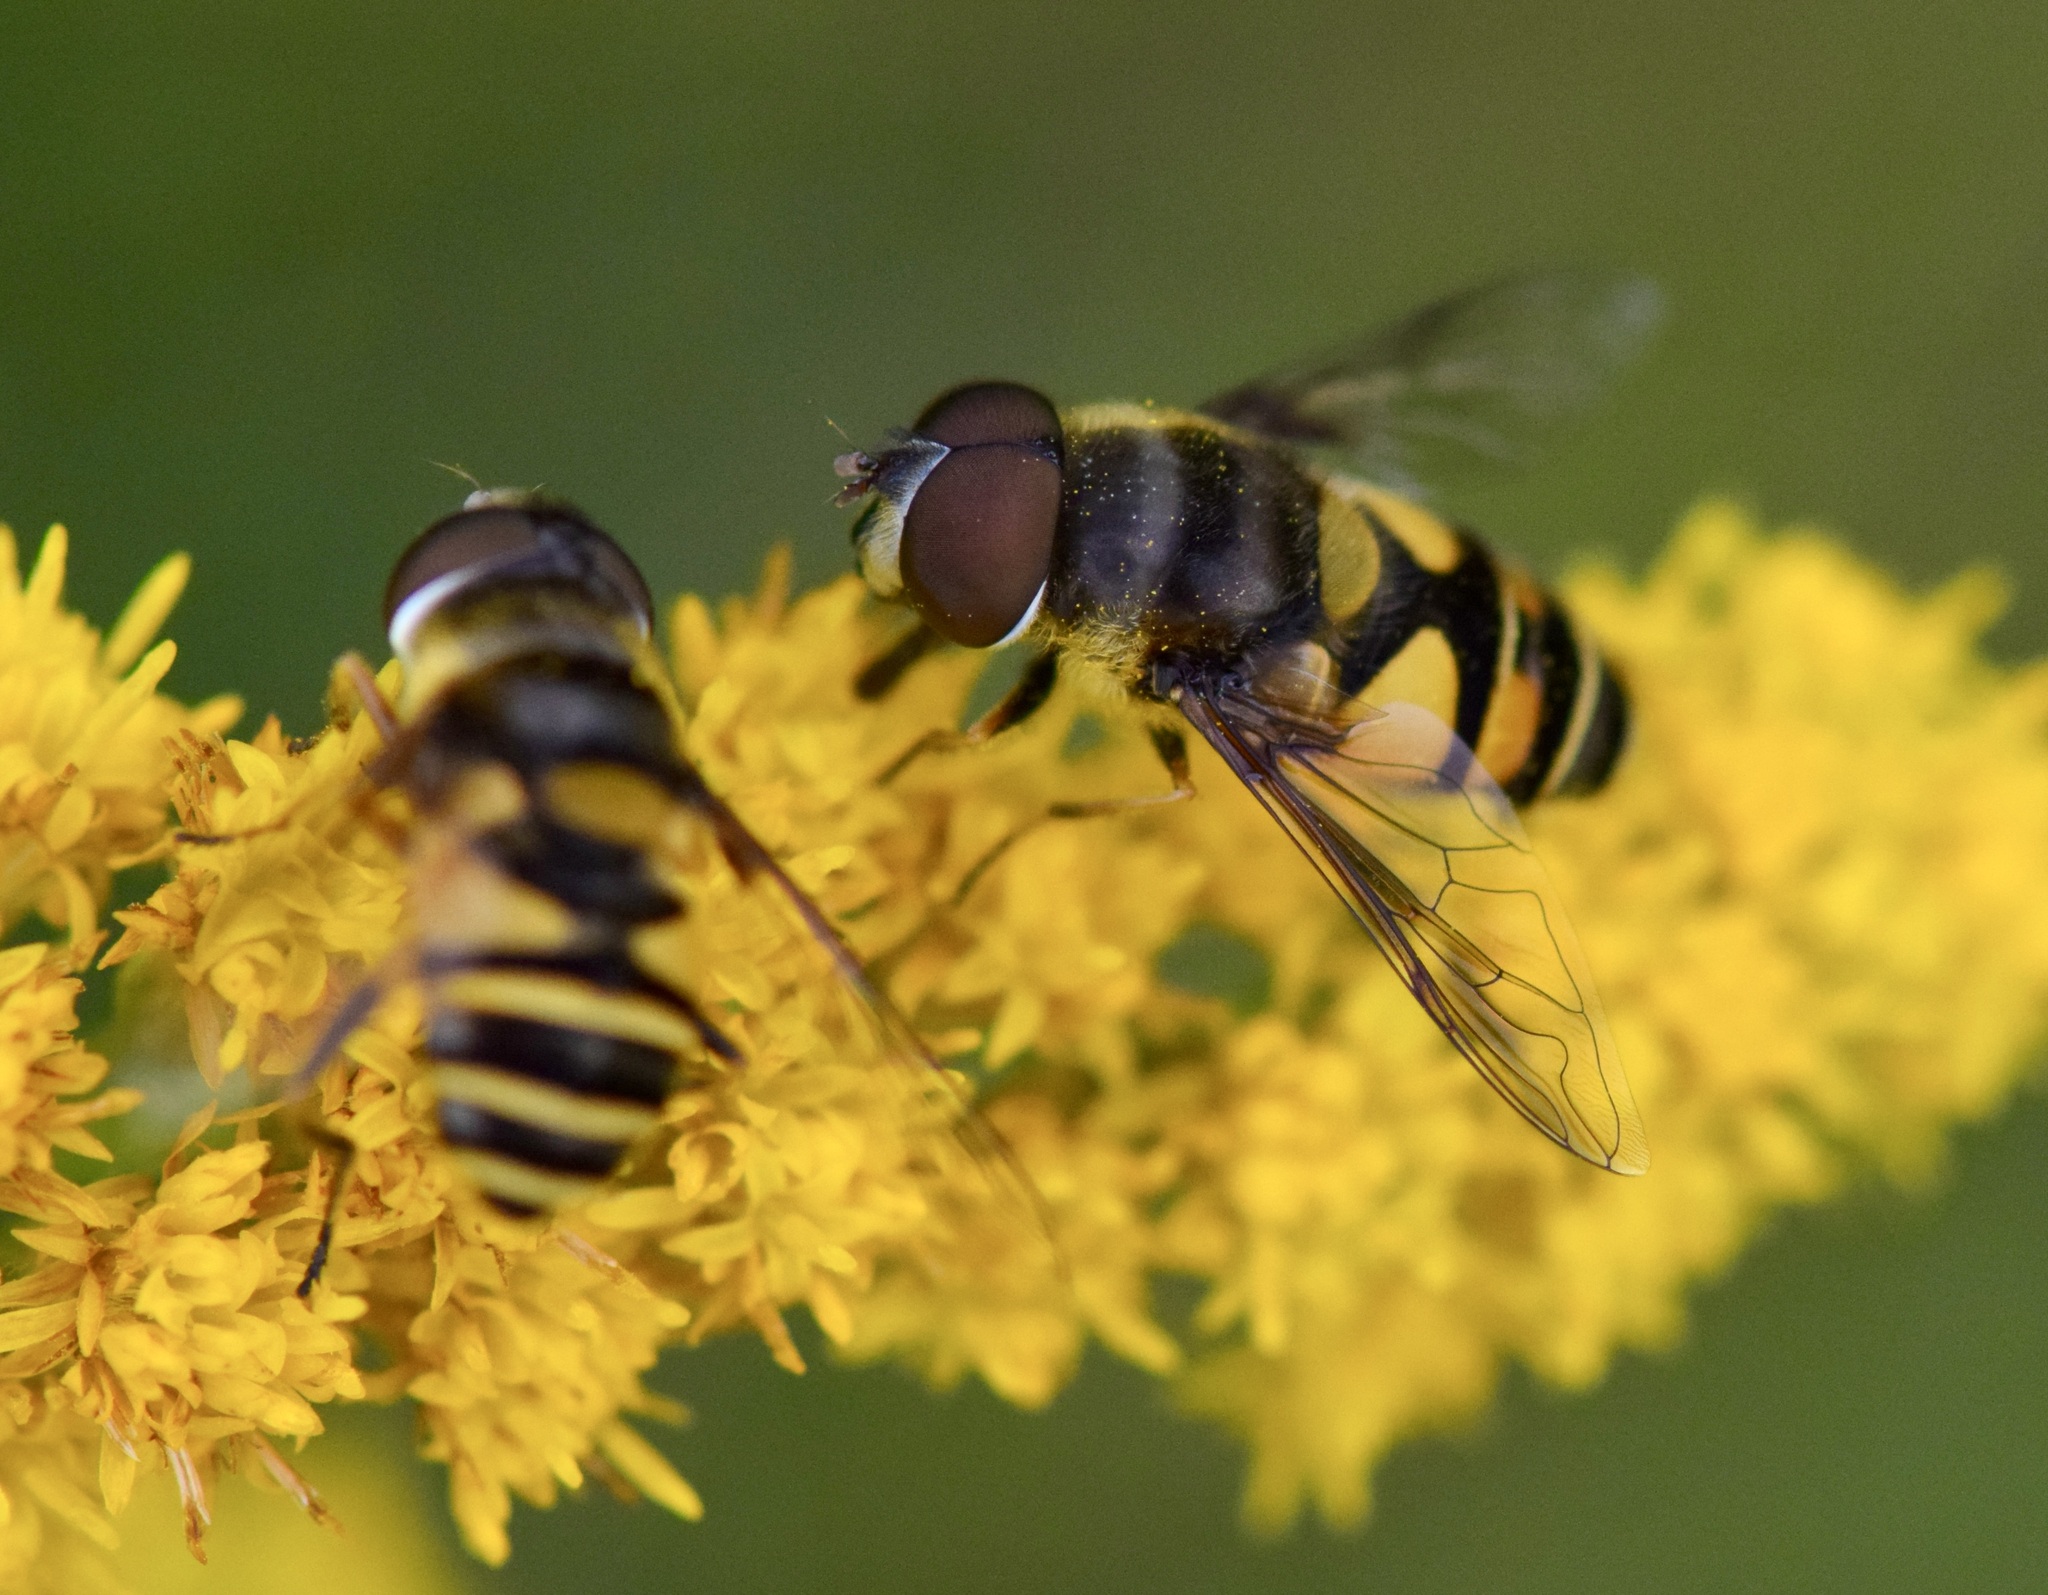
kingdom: Animalia
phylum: Arthropoda
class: Insecta
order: Diptera
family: Syrphidae
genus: Eristalis
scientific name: Eristalis transversa
